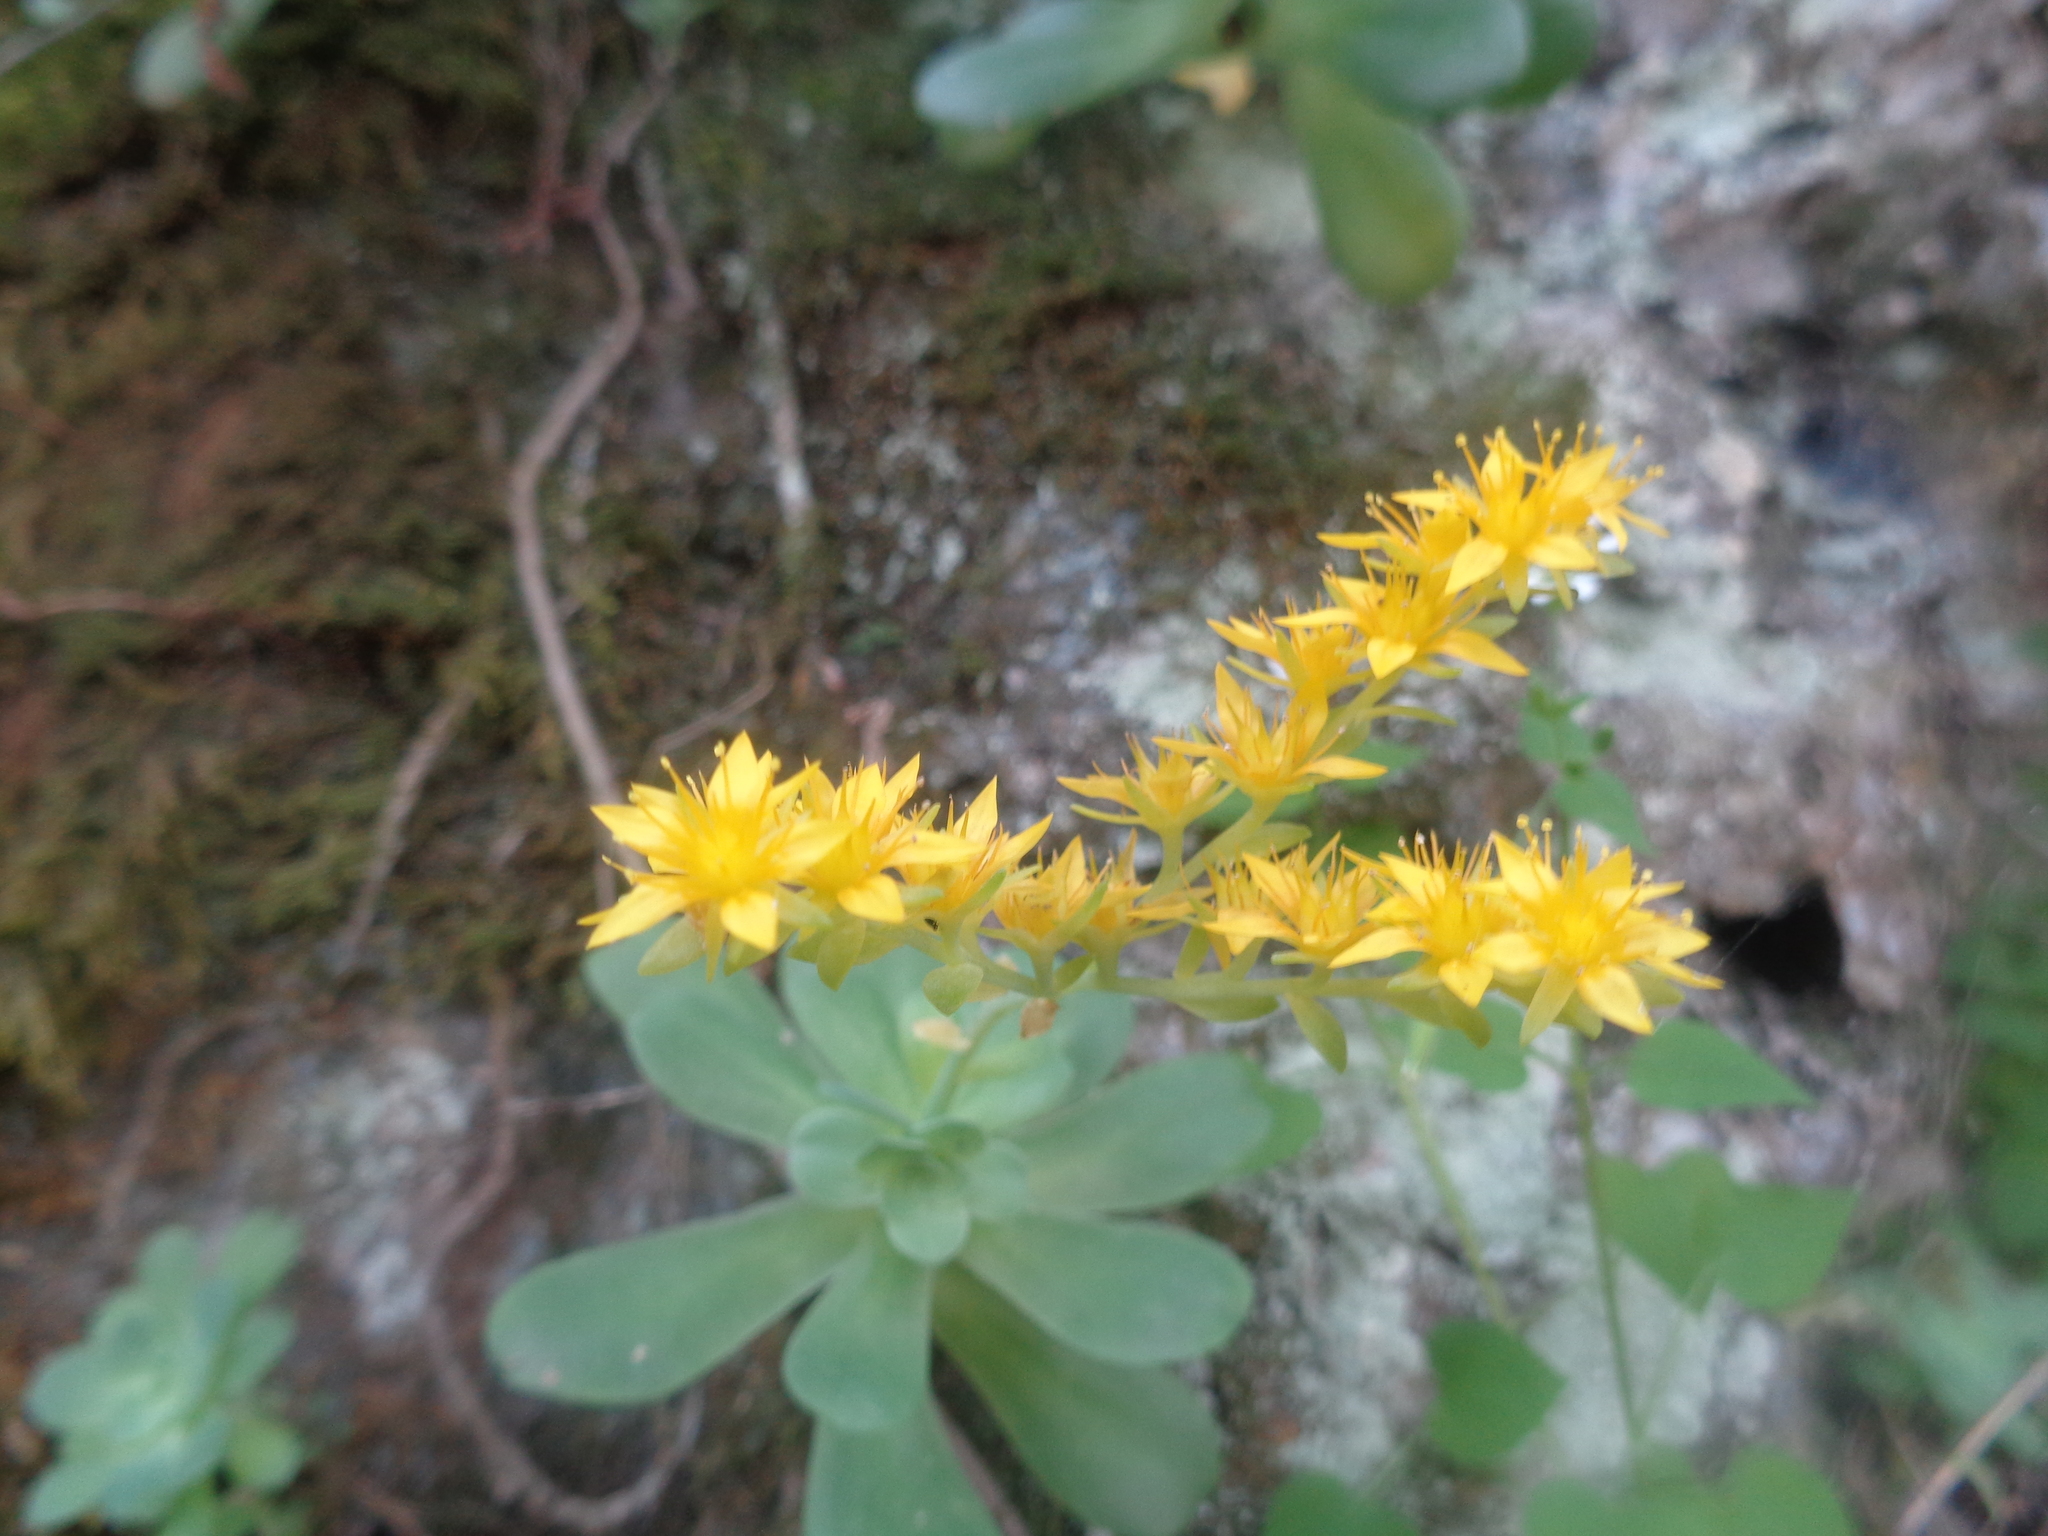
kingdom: Plantae
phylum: Tracheophyta
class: Magnoliopsida
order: Saxifragales
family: Crassulaceae
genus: Sedum
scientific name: Sedum palmeri
